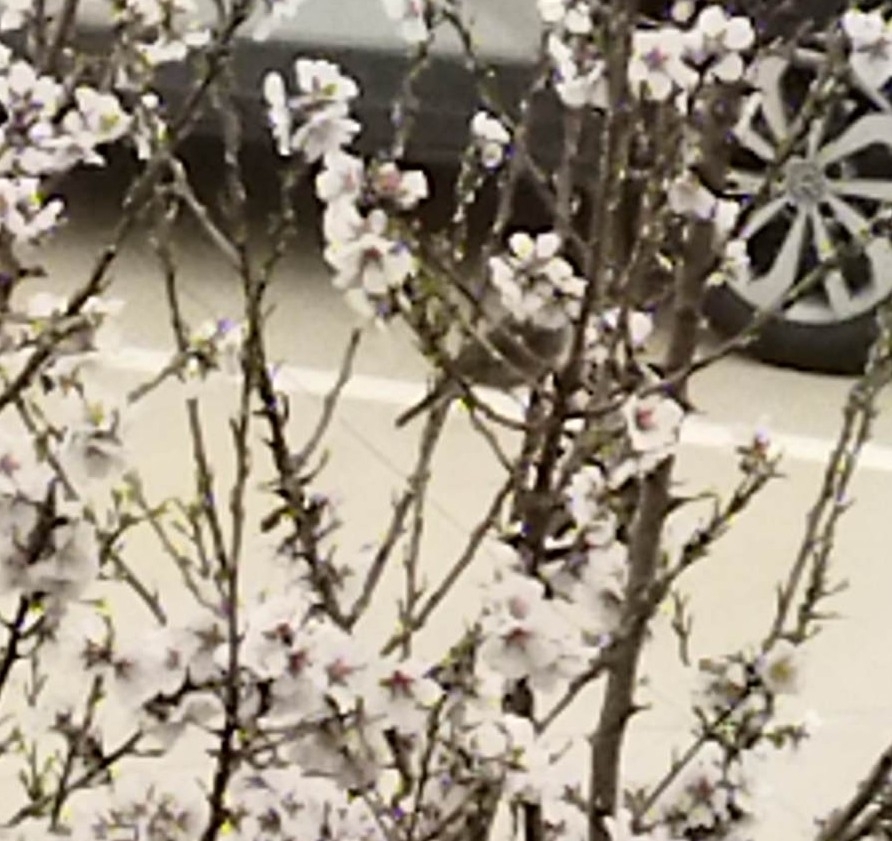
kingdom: Animalia
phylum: Chordata
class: Aves
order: Passeriformes
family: Sylviidae
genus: Sylvia
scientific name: Sylvia atricapilla
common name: Eurasian blackcap
